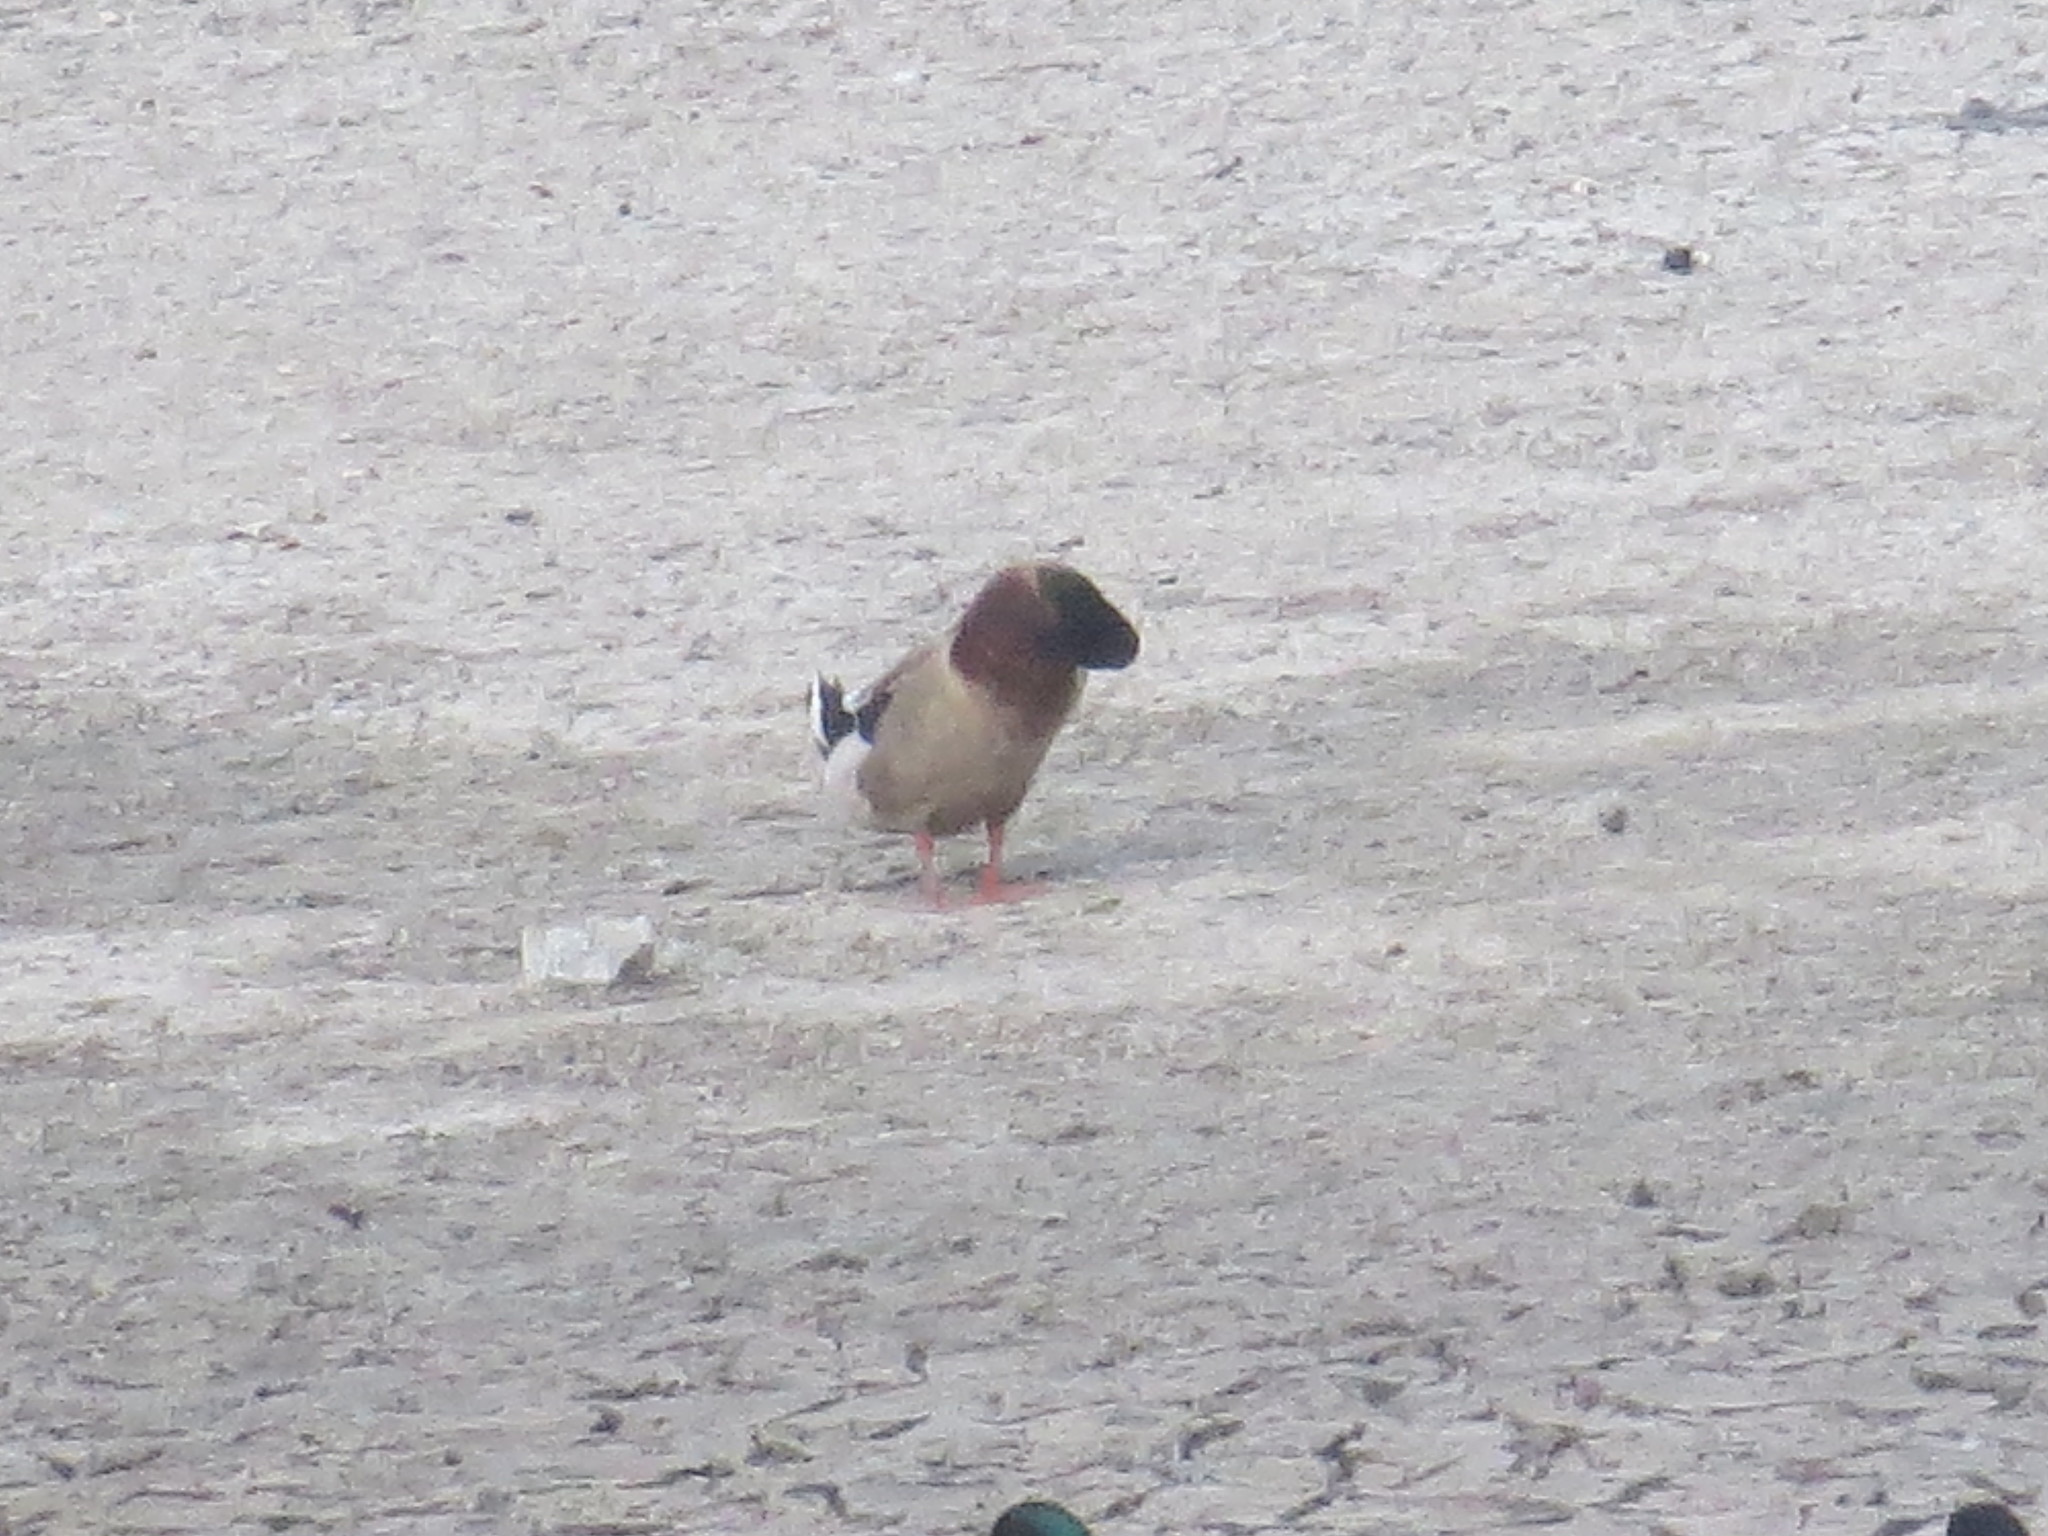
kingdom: Animalia
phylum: Chordata
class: Aves
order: Anseriformes
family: Anatidae
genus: Anas
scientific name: Anas platyrhynchos
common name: Mallard
